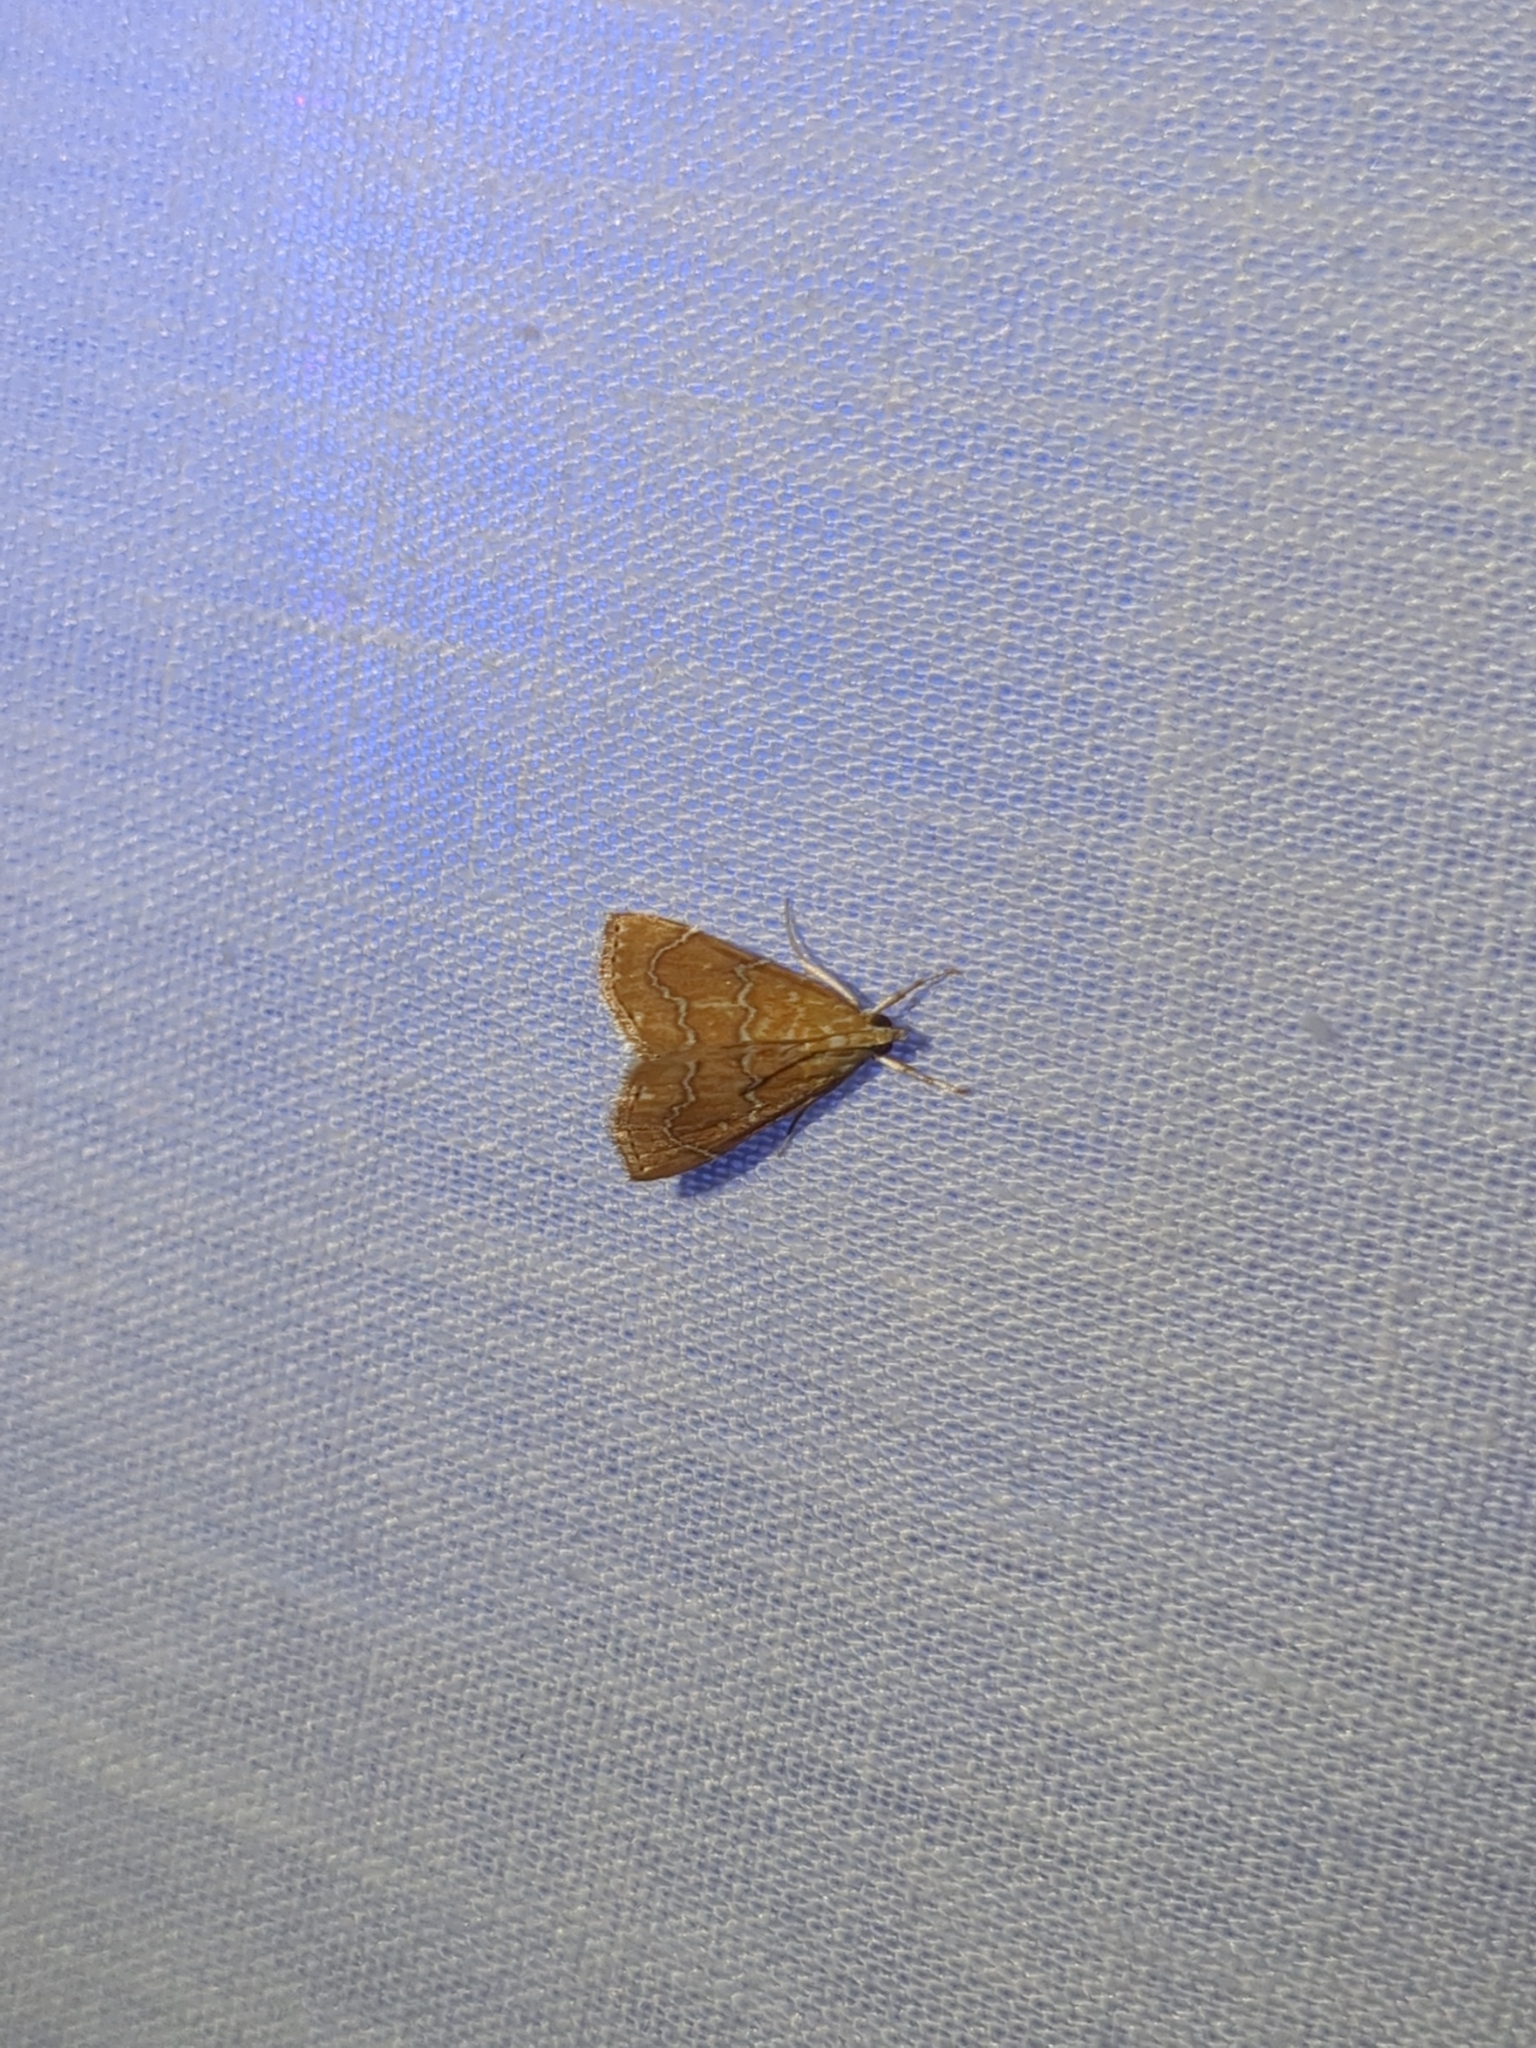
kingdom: Animalia
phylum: Arthropoda
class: Insecta
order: Lepidoptera
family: Crambidae
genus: Glaphyria
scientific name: Glaphyria sesquistrialis
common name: White-roped glaphyria
